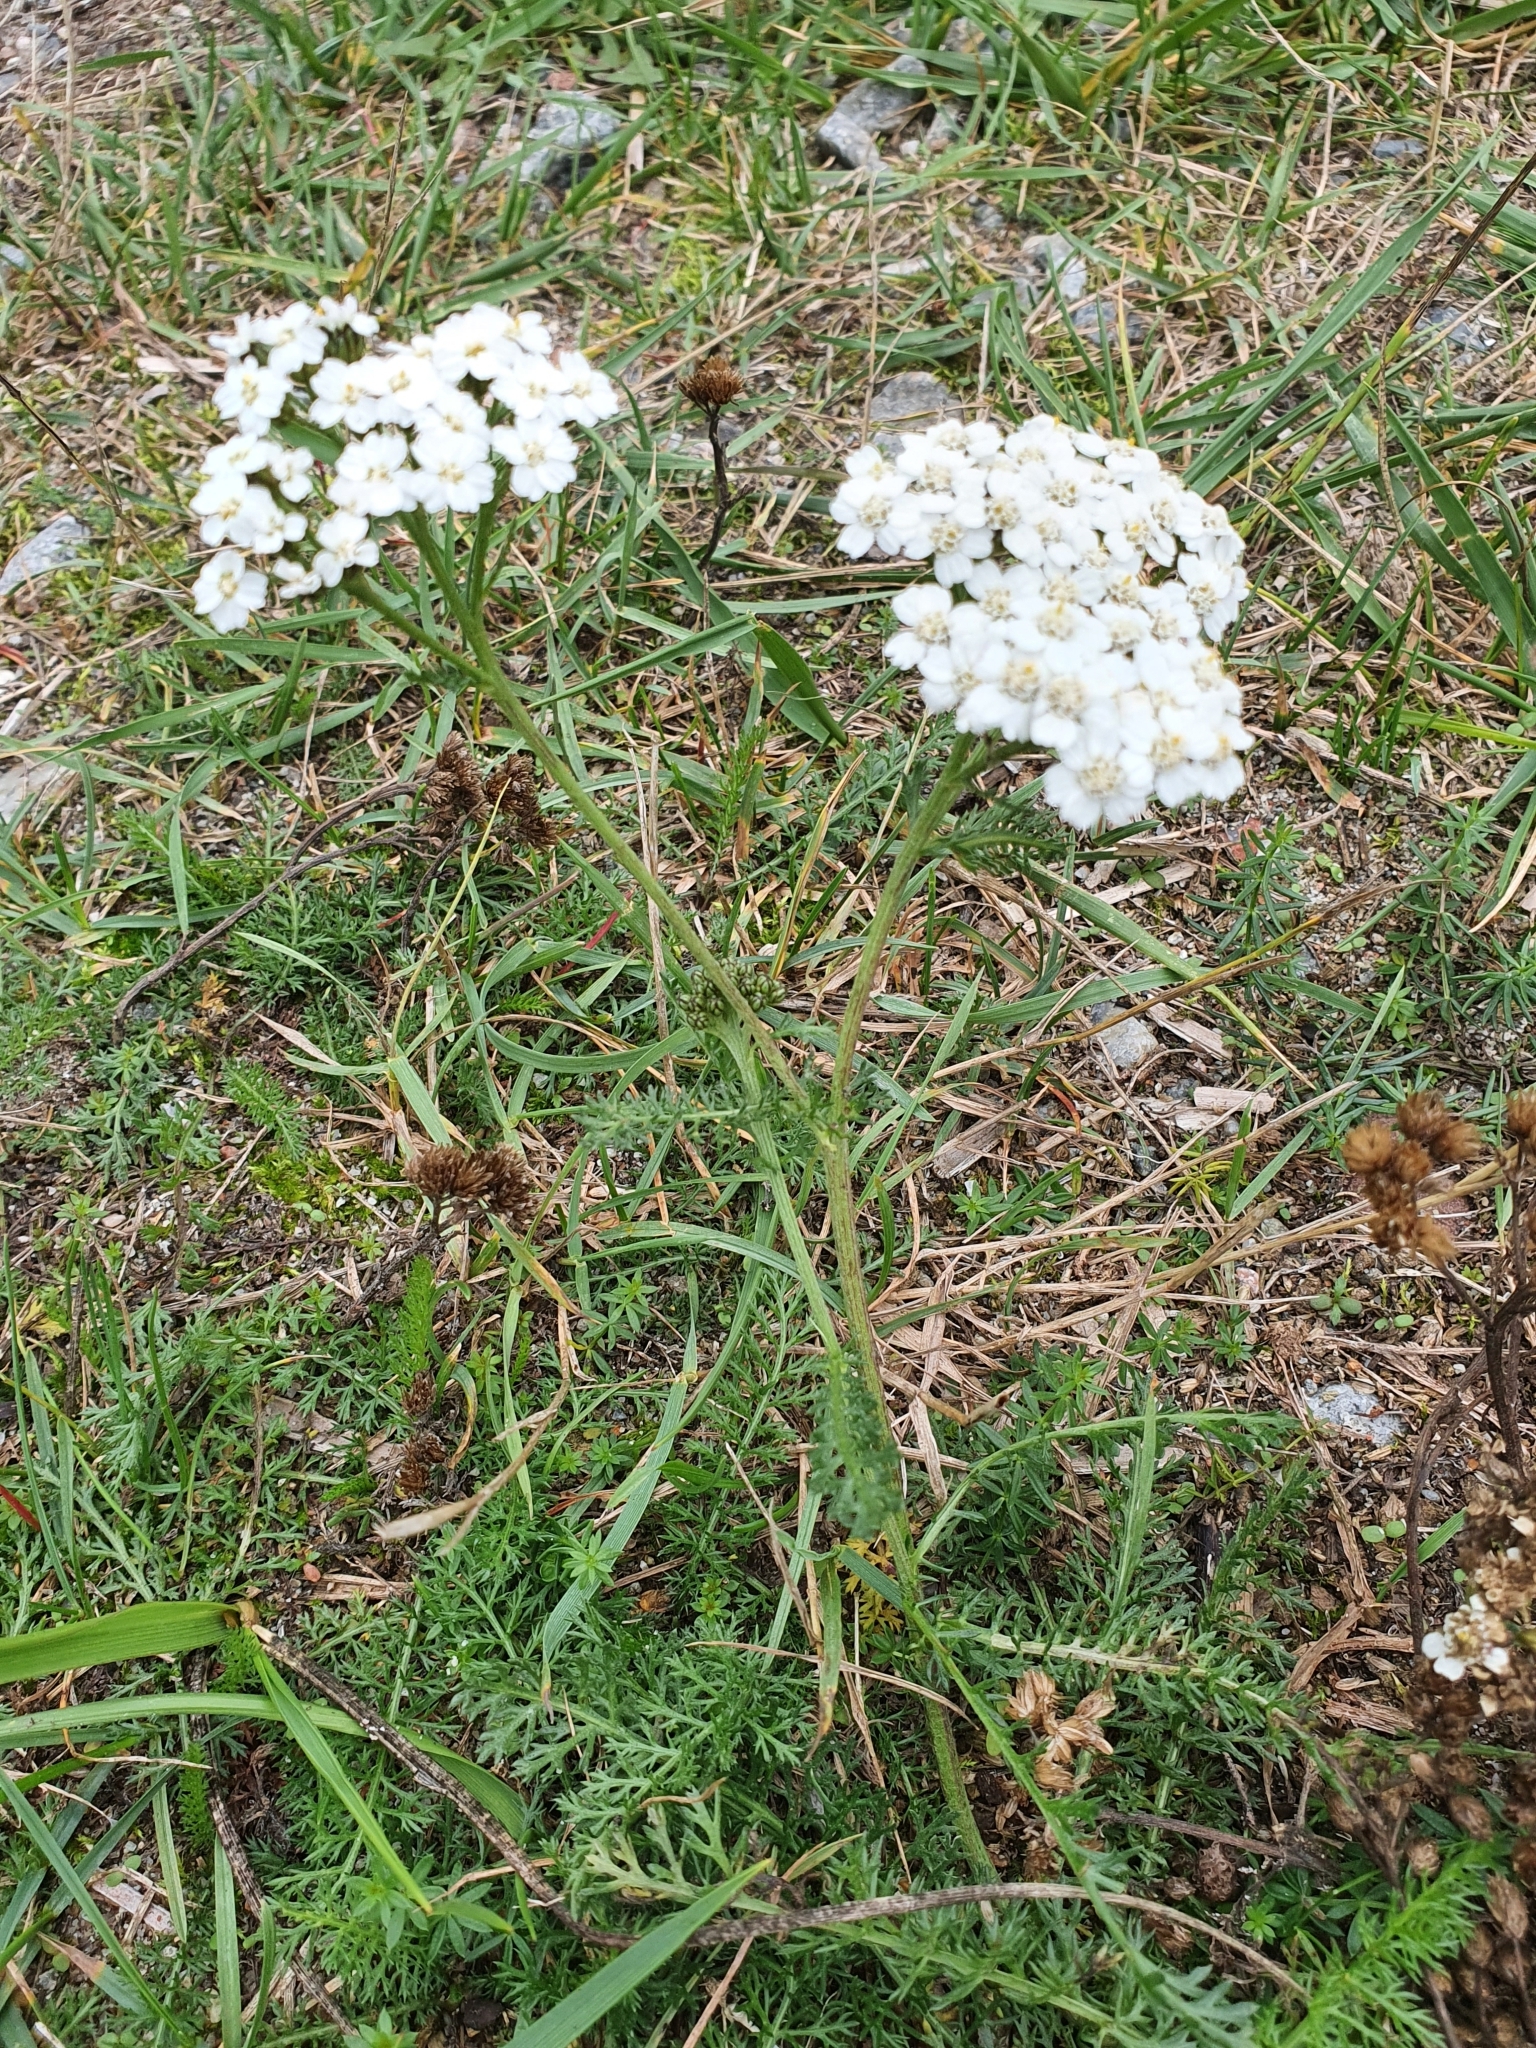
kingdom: Plantae
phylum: Tracheophyta
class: Magnoliopsida
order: Asterales
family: Asteraceae
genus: Achillea
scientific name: Achillea millefolium
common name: Yarrow
